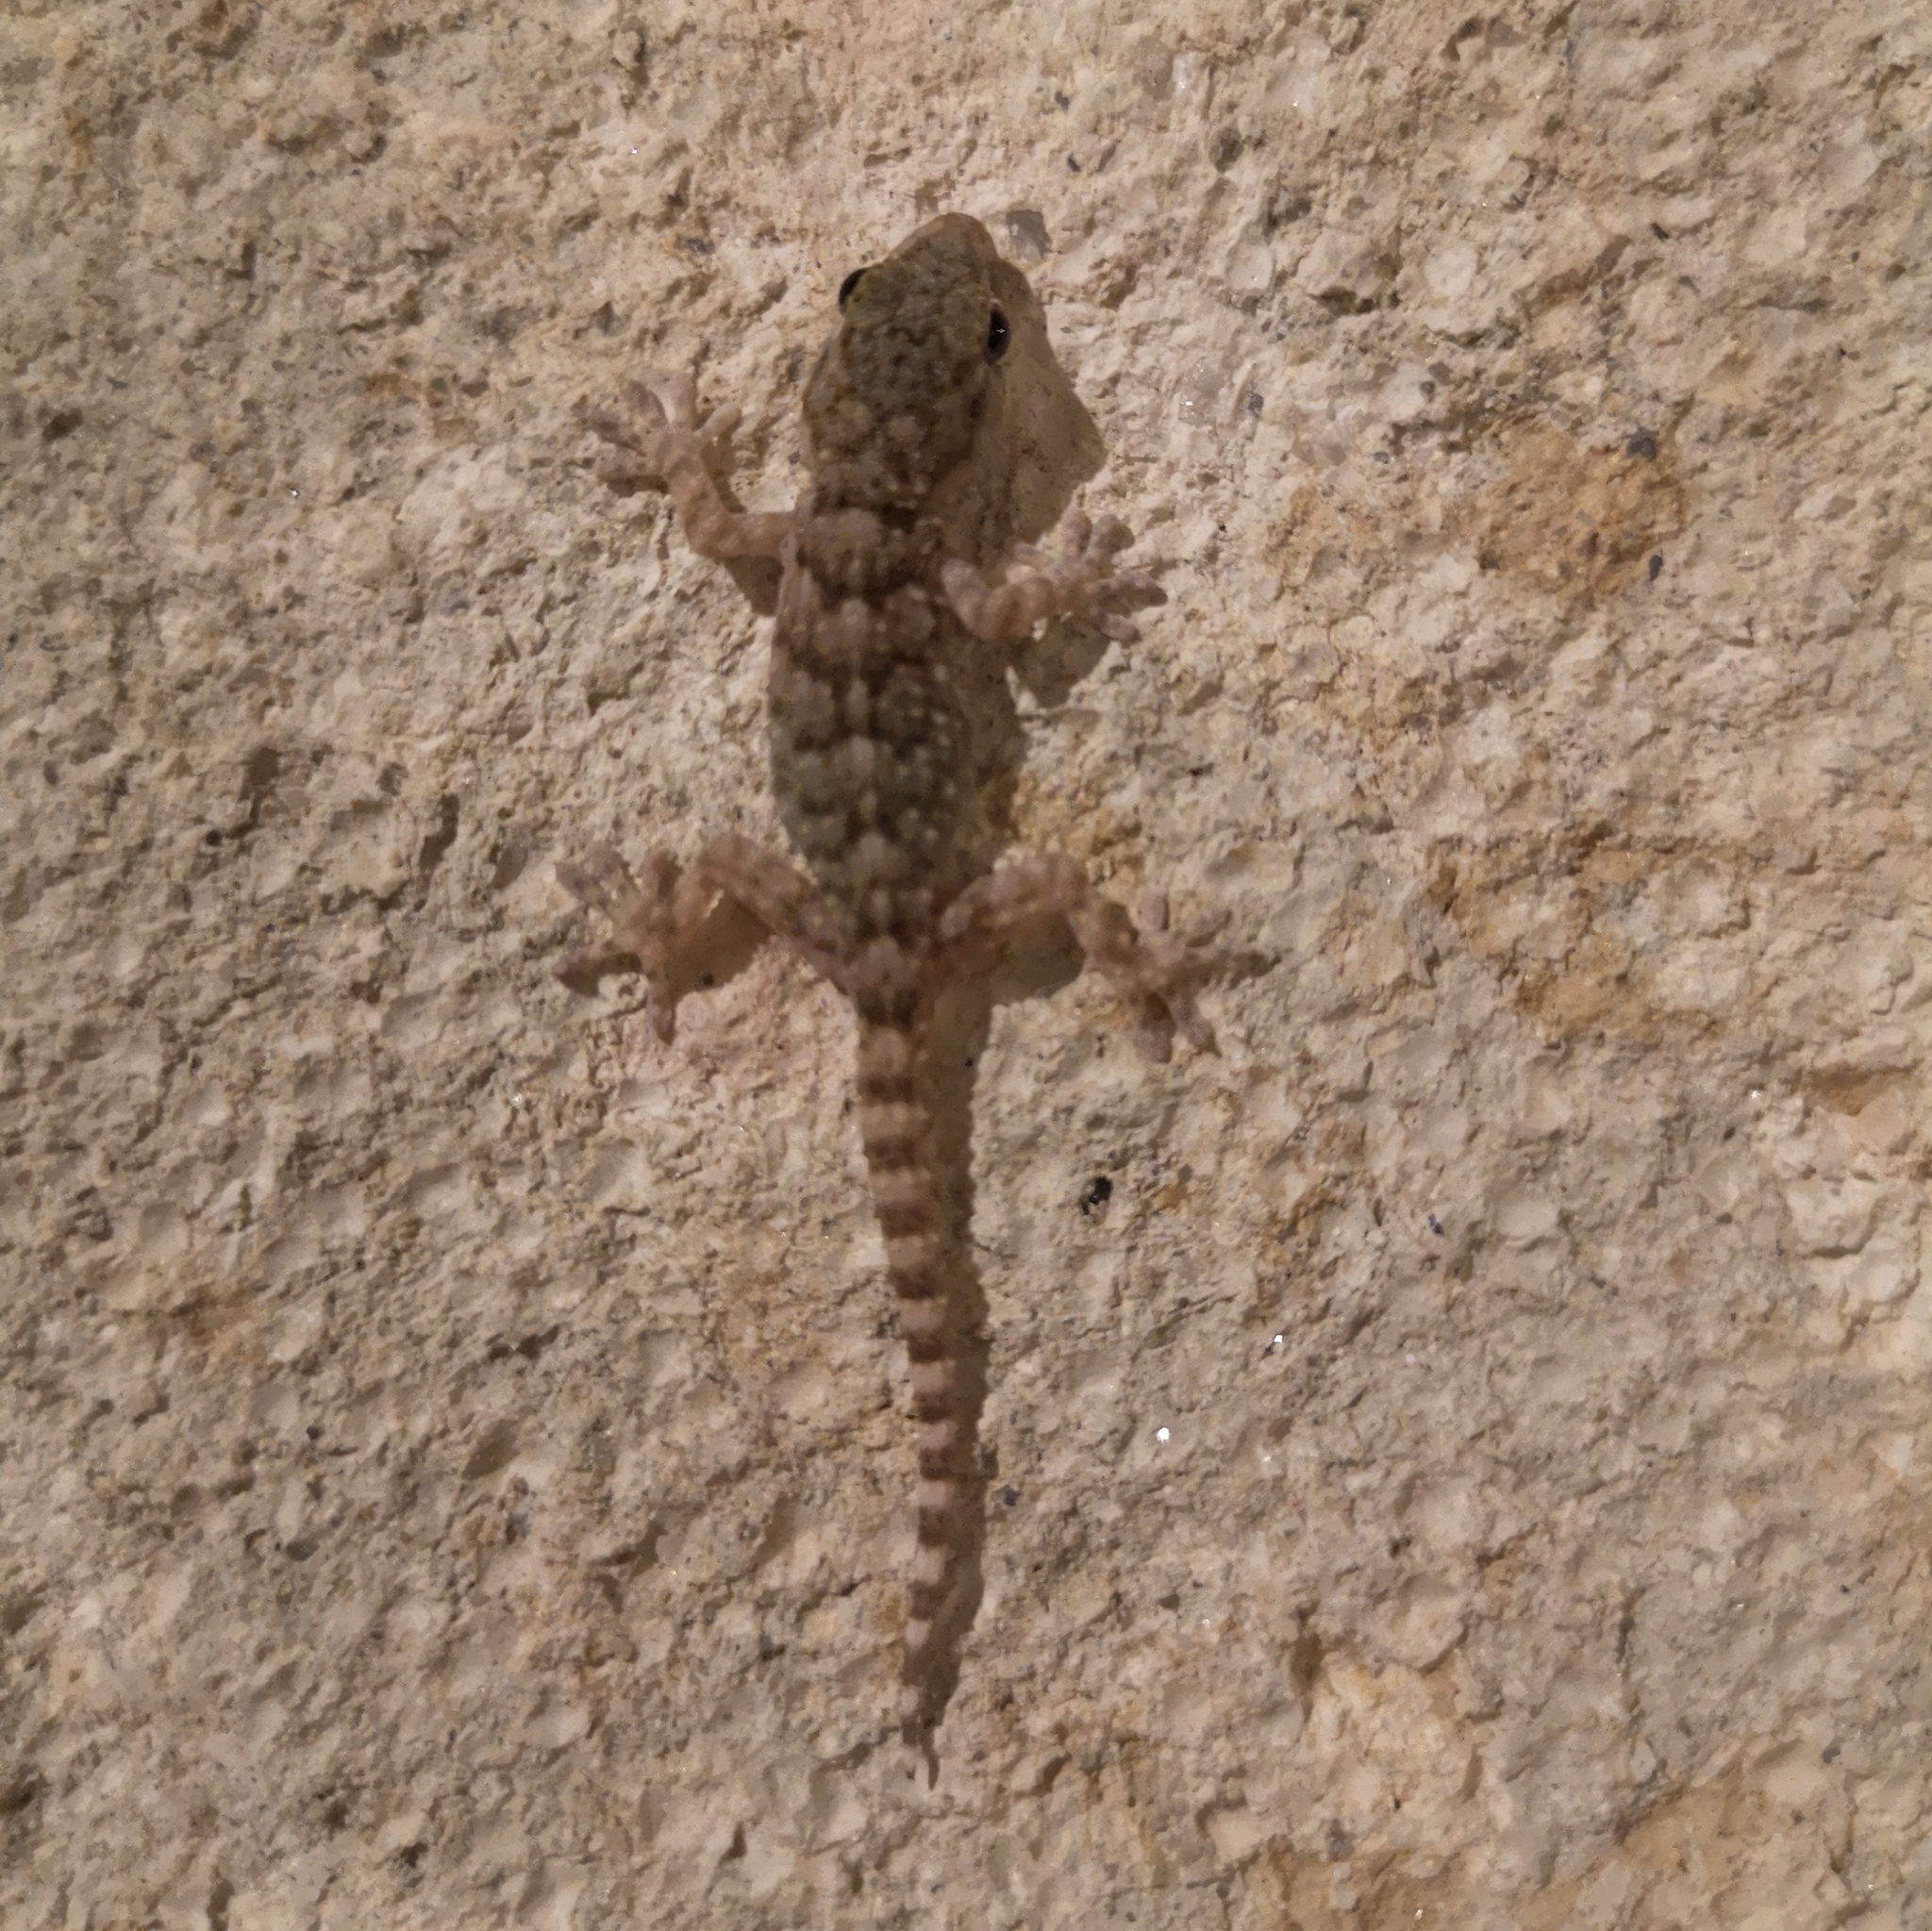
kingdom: Animalia
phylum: Chordata
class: Squamata
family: Phyllodactylidae
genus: Tarentola
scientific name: Tarentola mauritanica
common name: Moorish gecko
